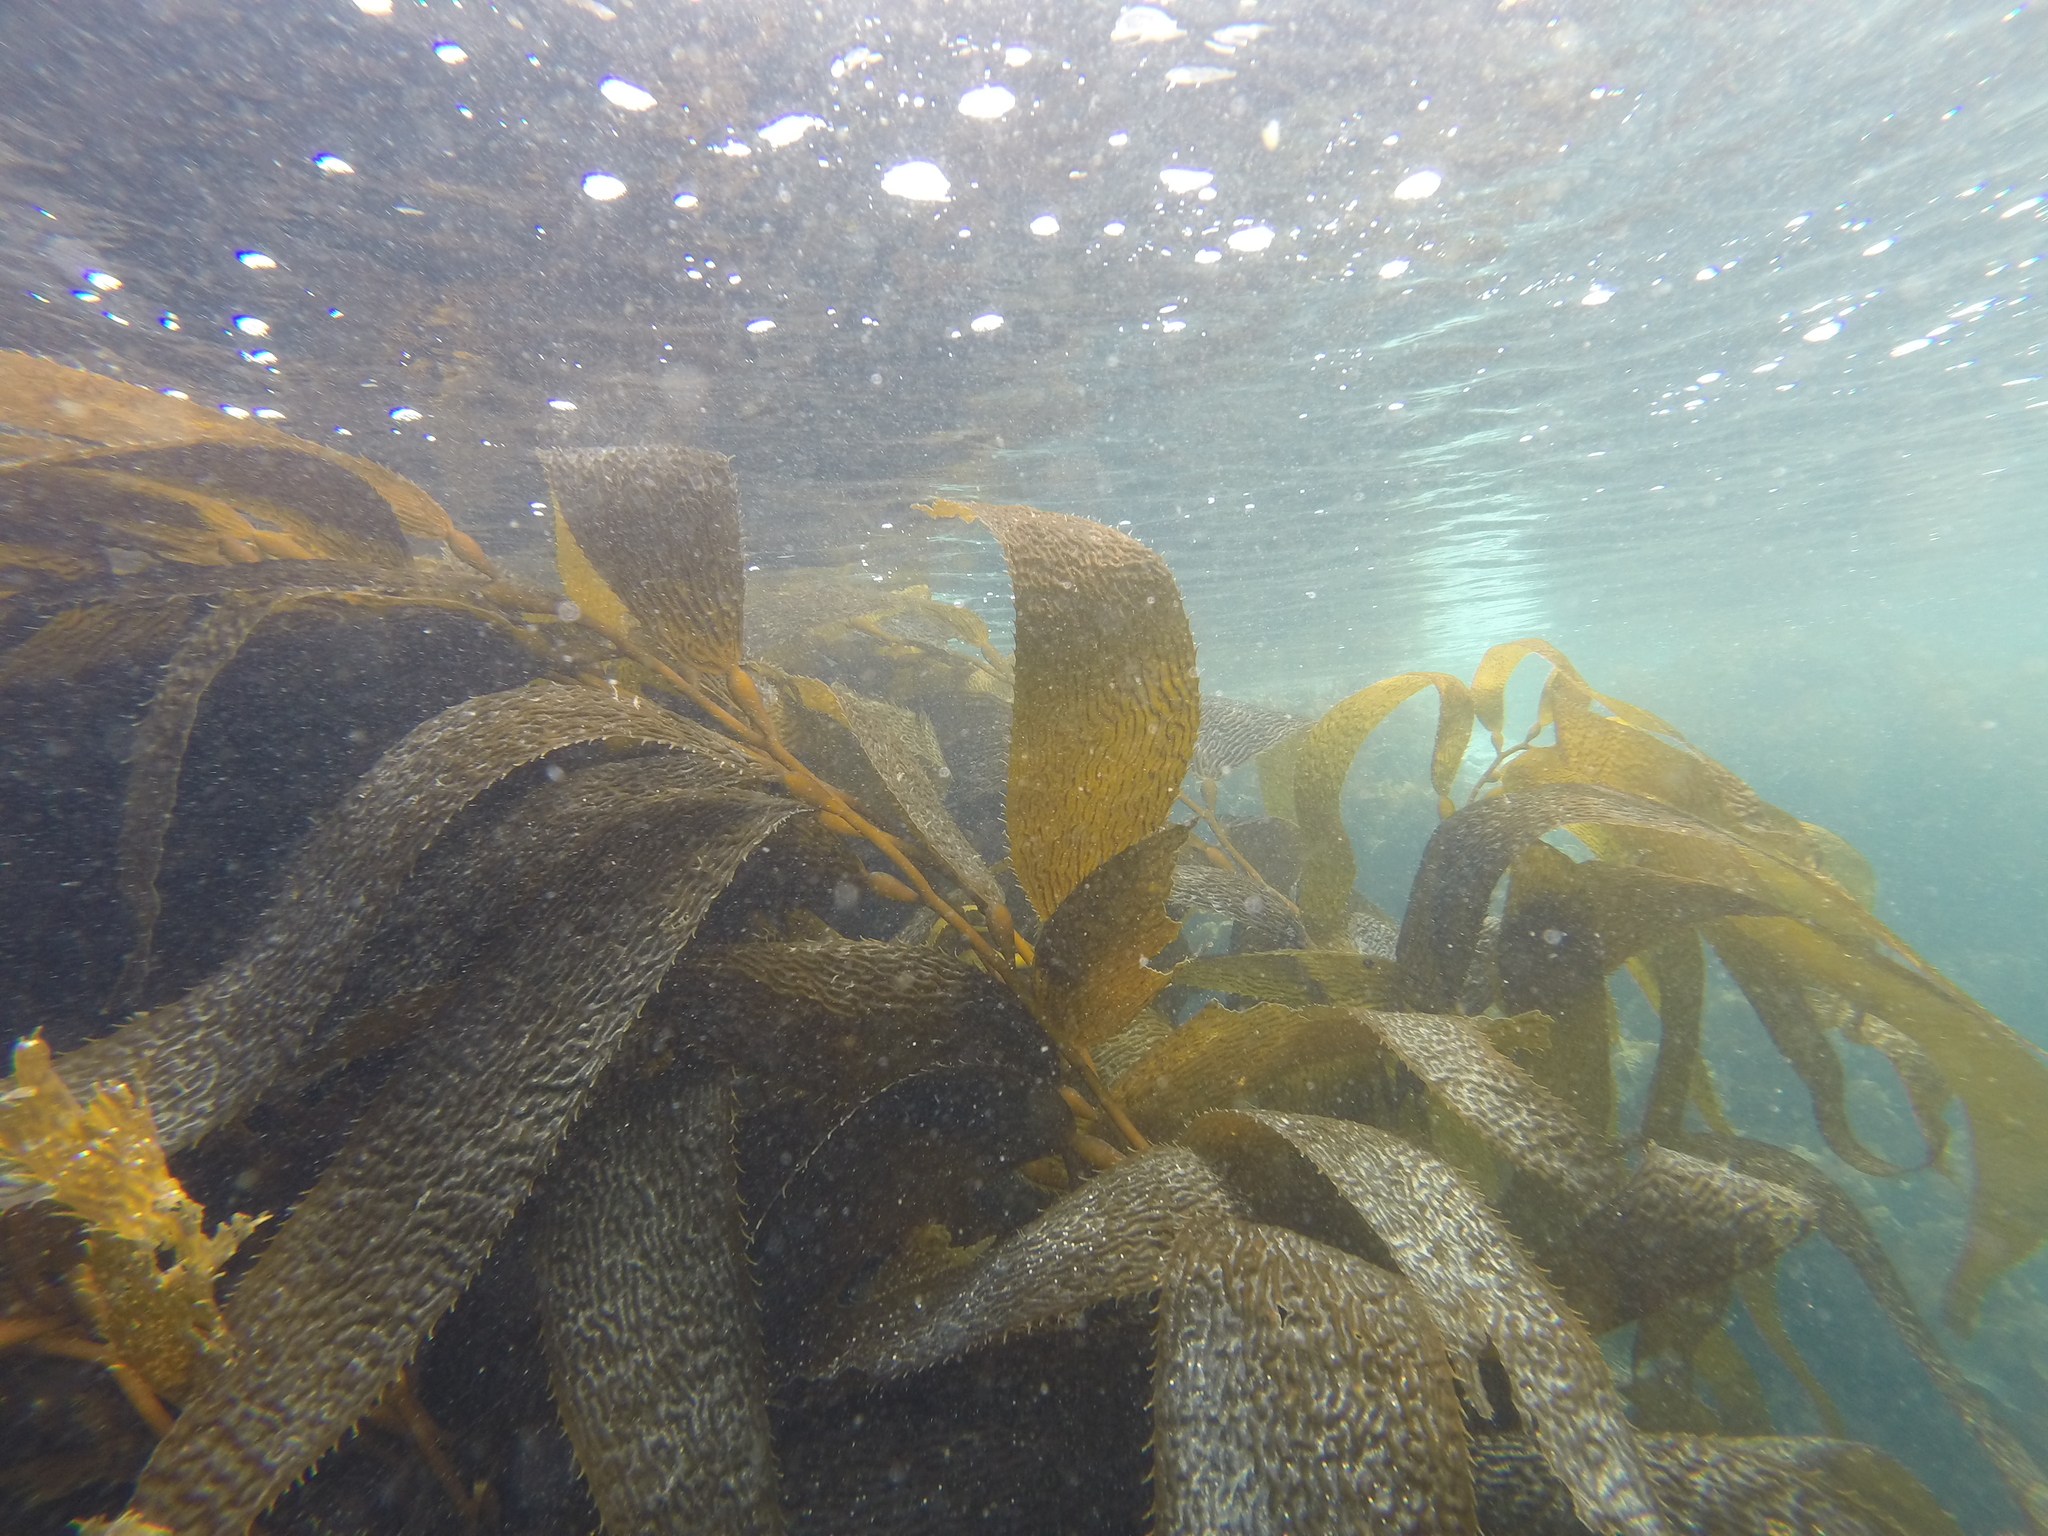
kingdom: Chromista
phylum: Ochrophyta
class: Phaeophyceae
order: Laminariales
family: Laminariaceae
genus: Macrocystis
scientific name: Macrocystis pyrifera
